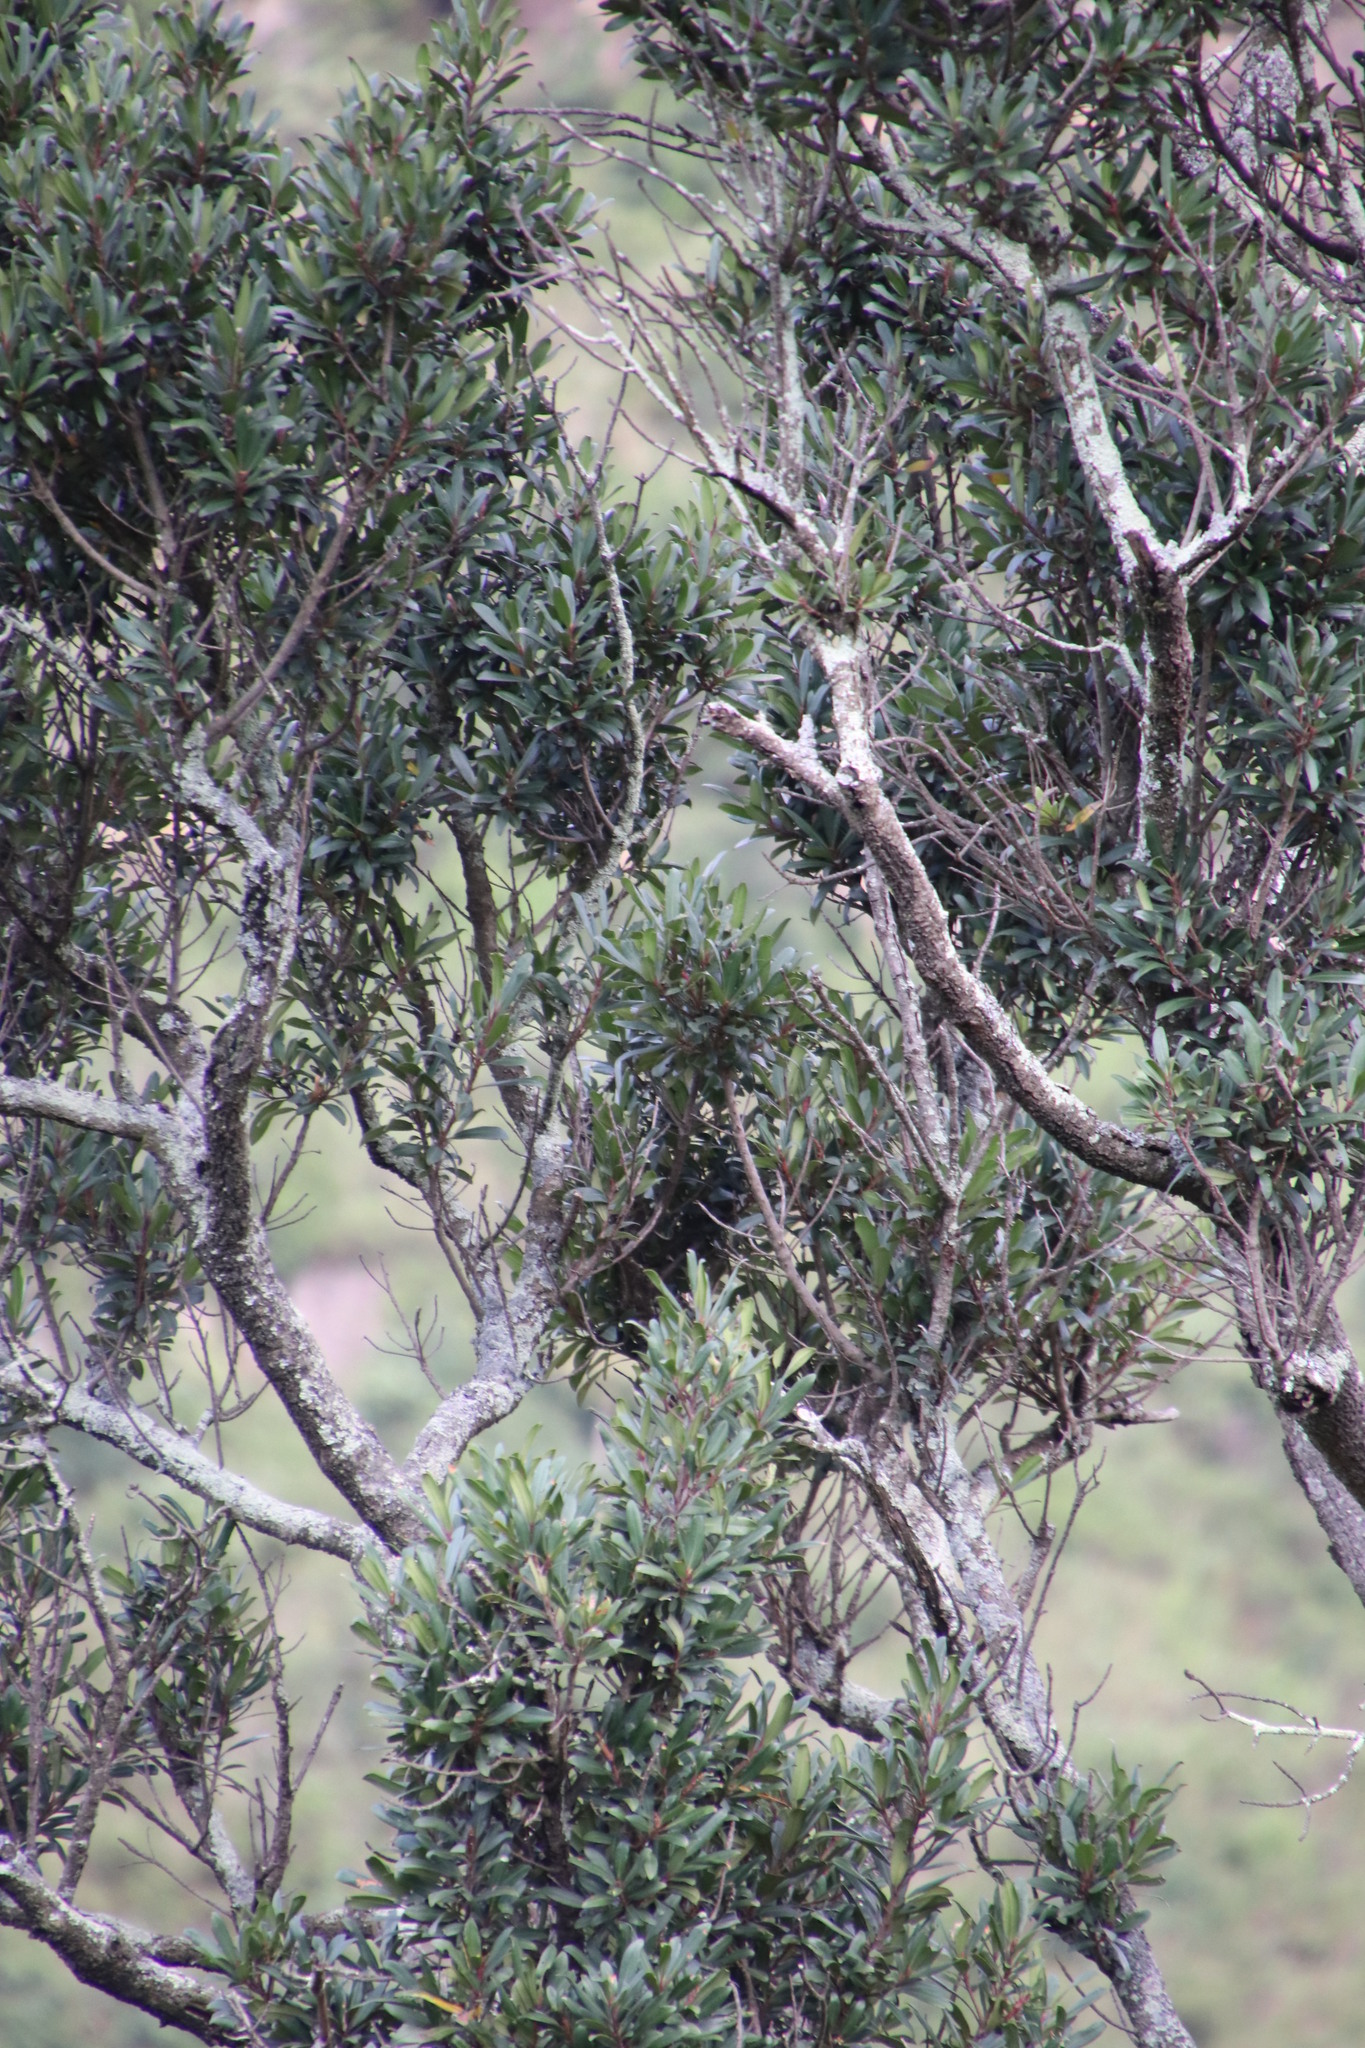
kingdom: Plantae
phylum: Tracheophyta
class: Pinopsida
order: Pinales
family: Podocarpaceae
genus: Podocarpus
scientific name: Podocarpus latifolius
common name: True yellowwood
